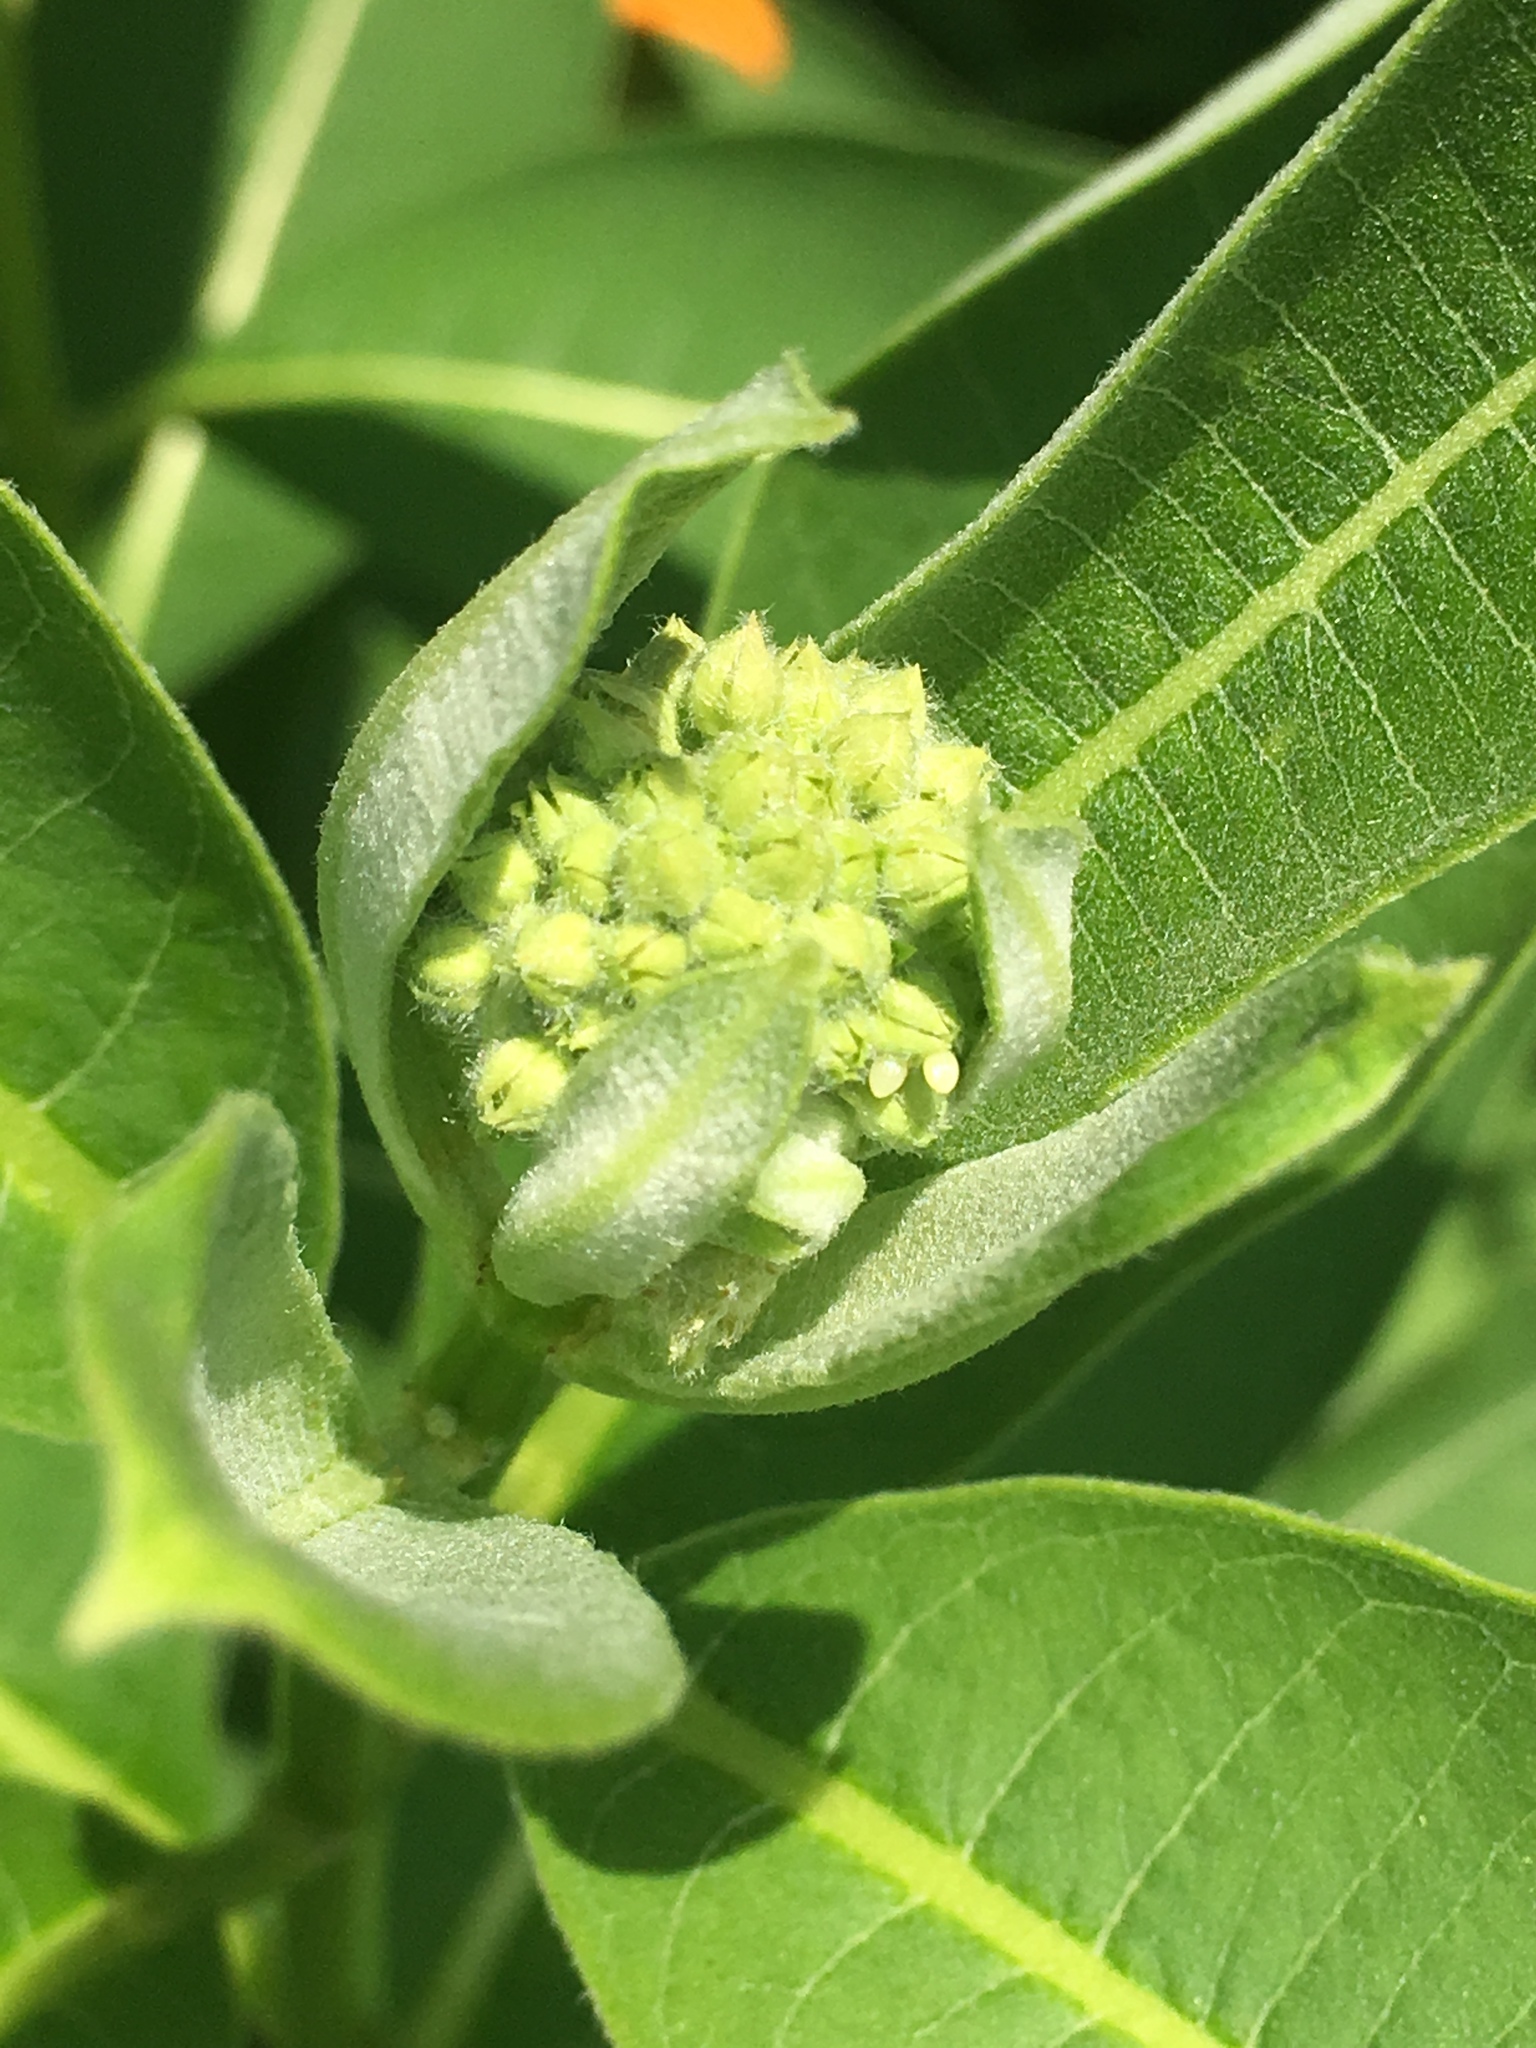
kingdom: Animalia
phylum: Arthropoda
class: Insecta
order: Lepidoptera
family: Nymphalidae
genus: Danaus
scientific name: Danaus plexippus
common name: Monarch
